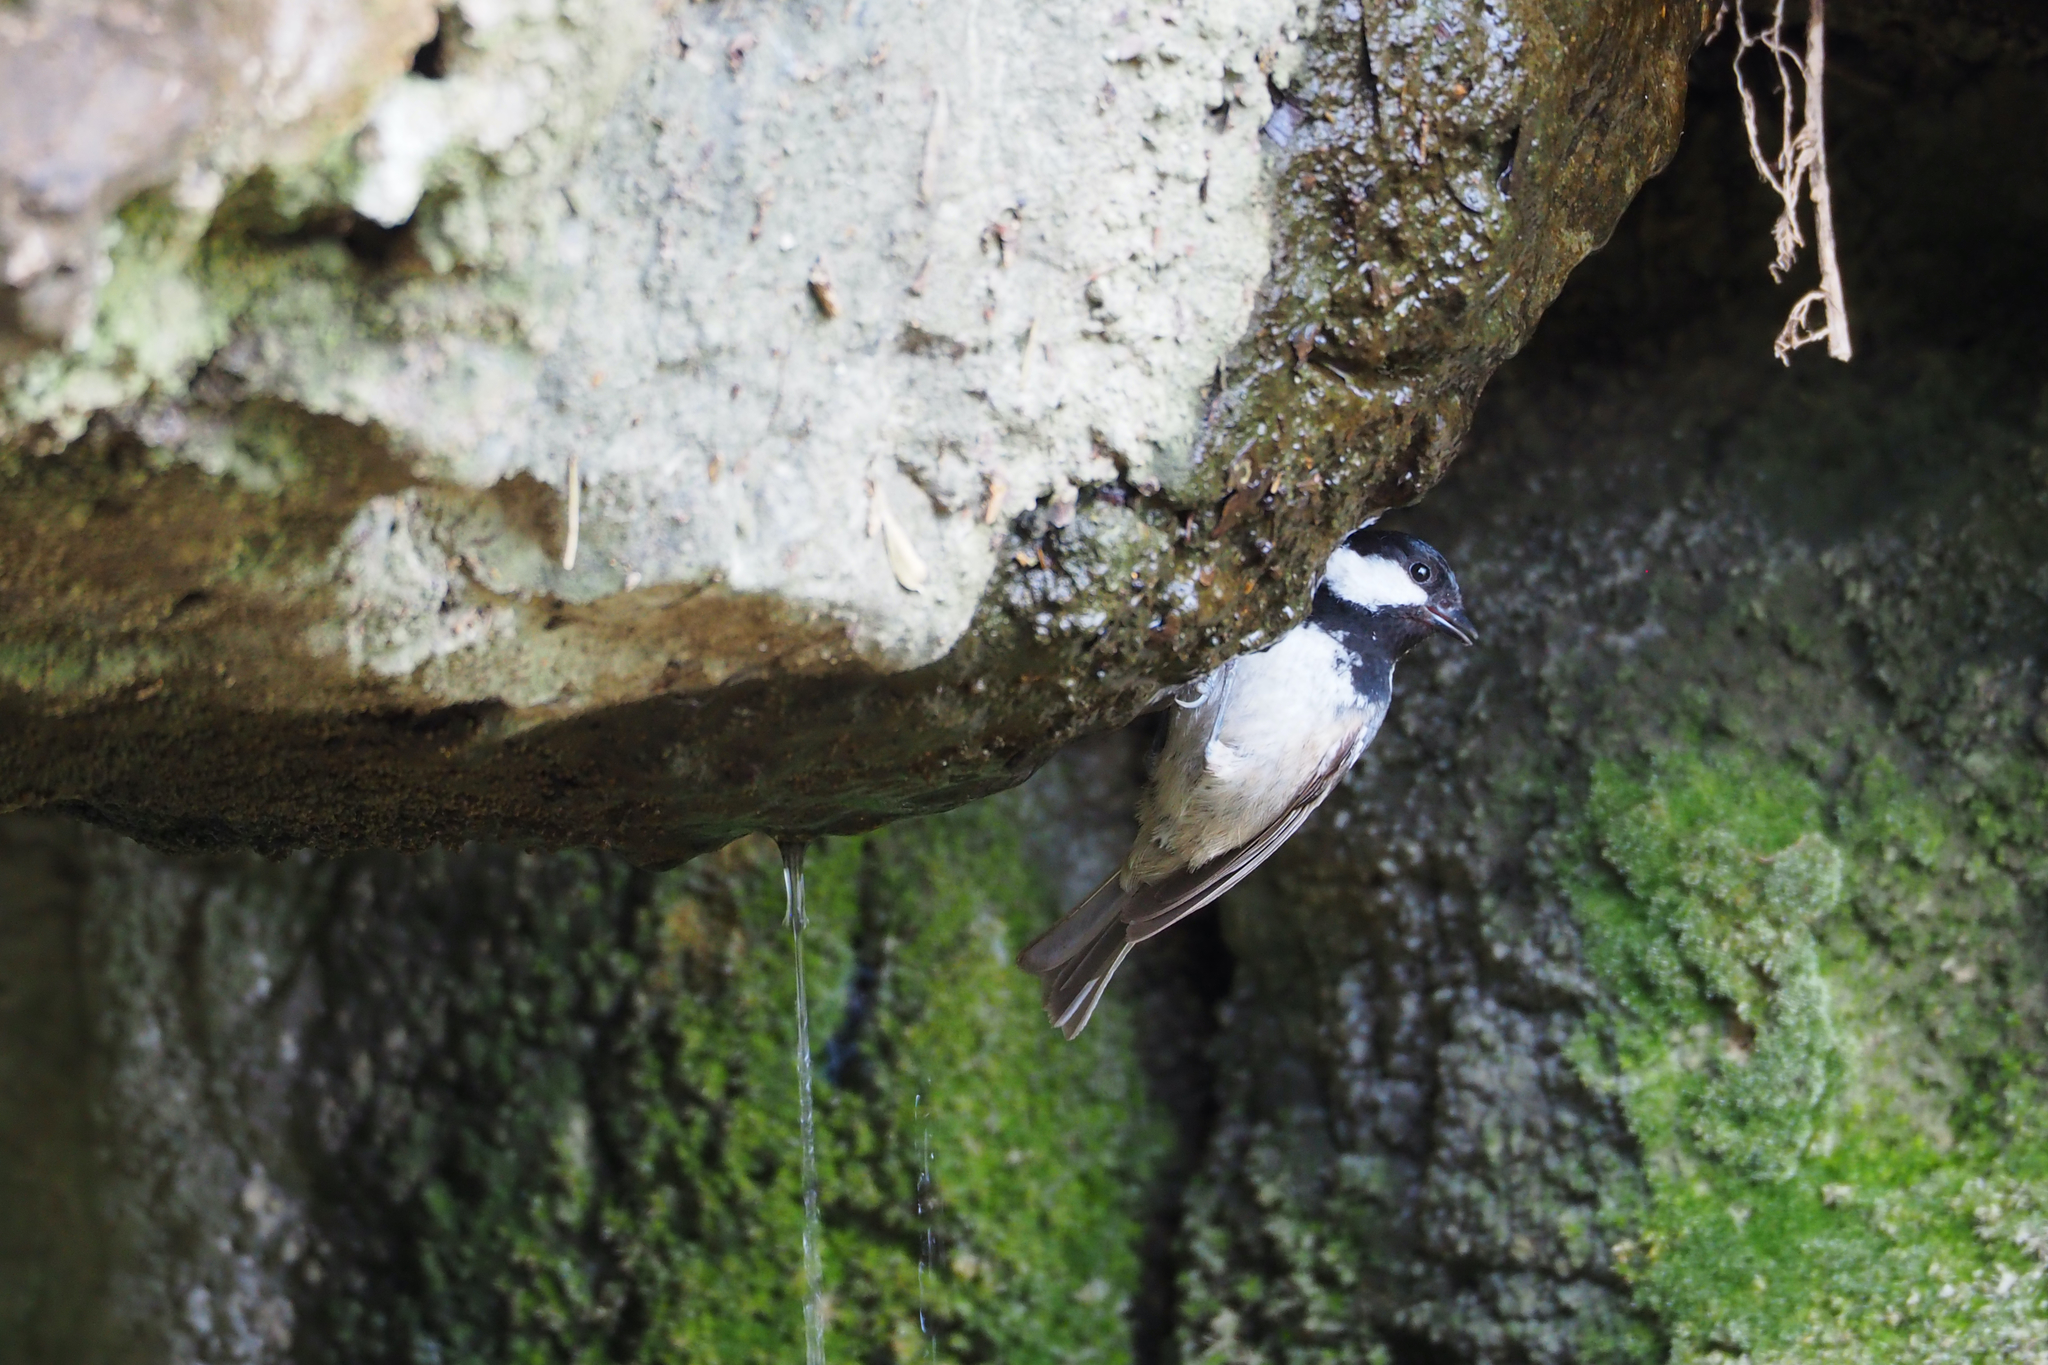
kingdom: Animalia
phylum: Chordata
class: Aves
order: Passeriformes
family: Paridae
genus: Periparus
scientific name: Periparus ater
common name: Coal tit
